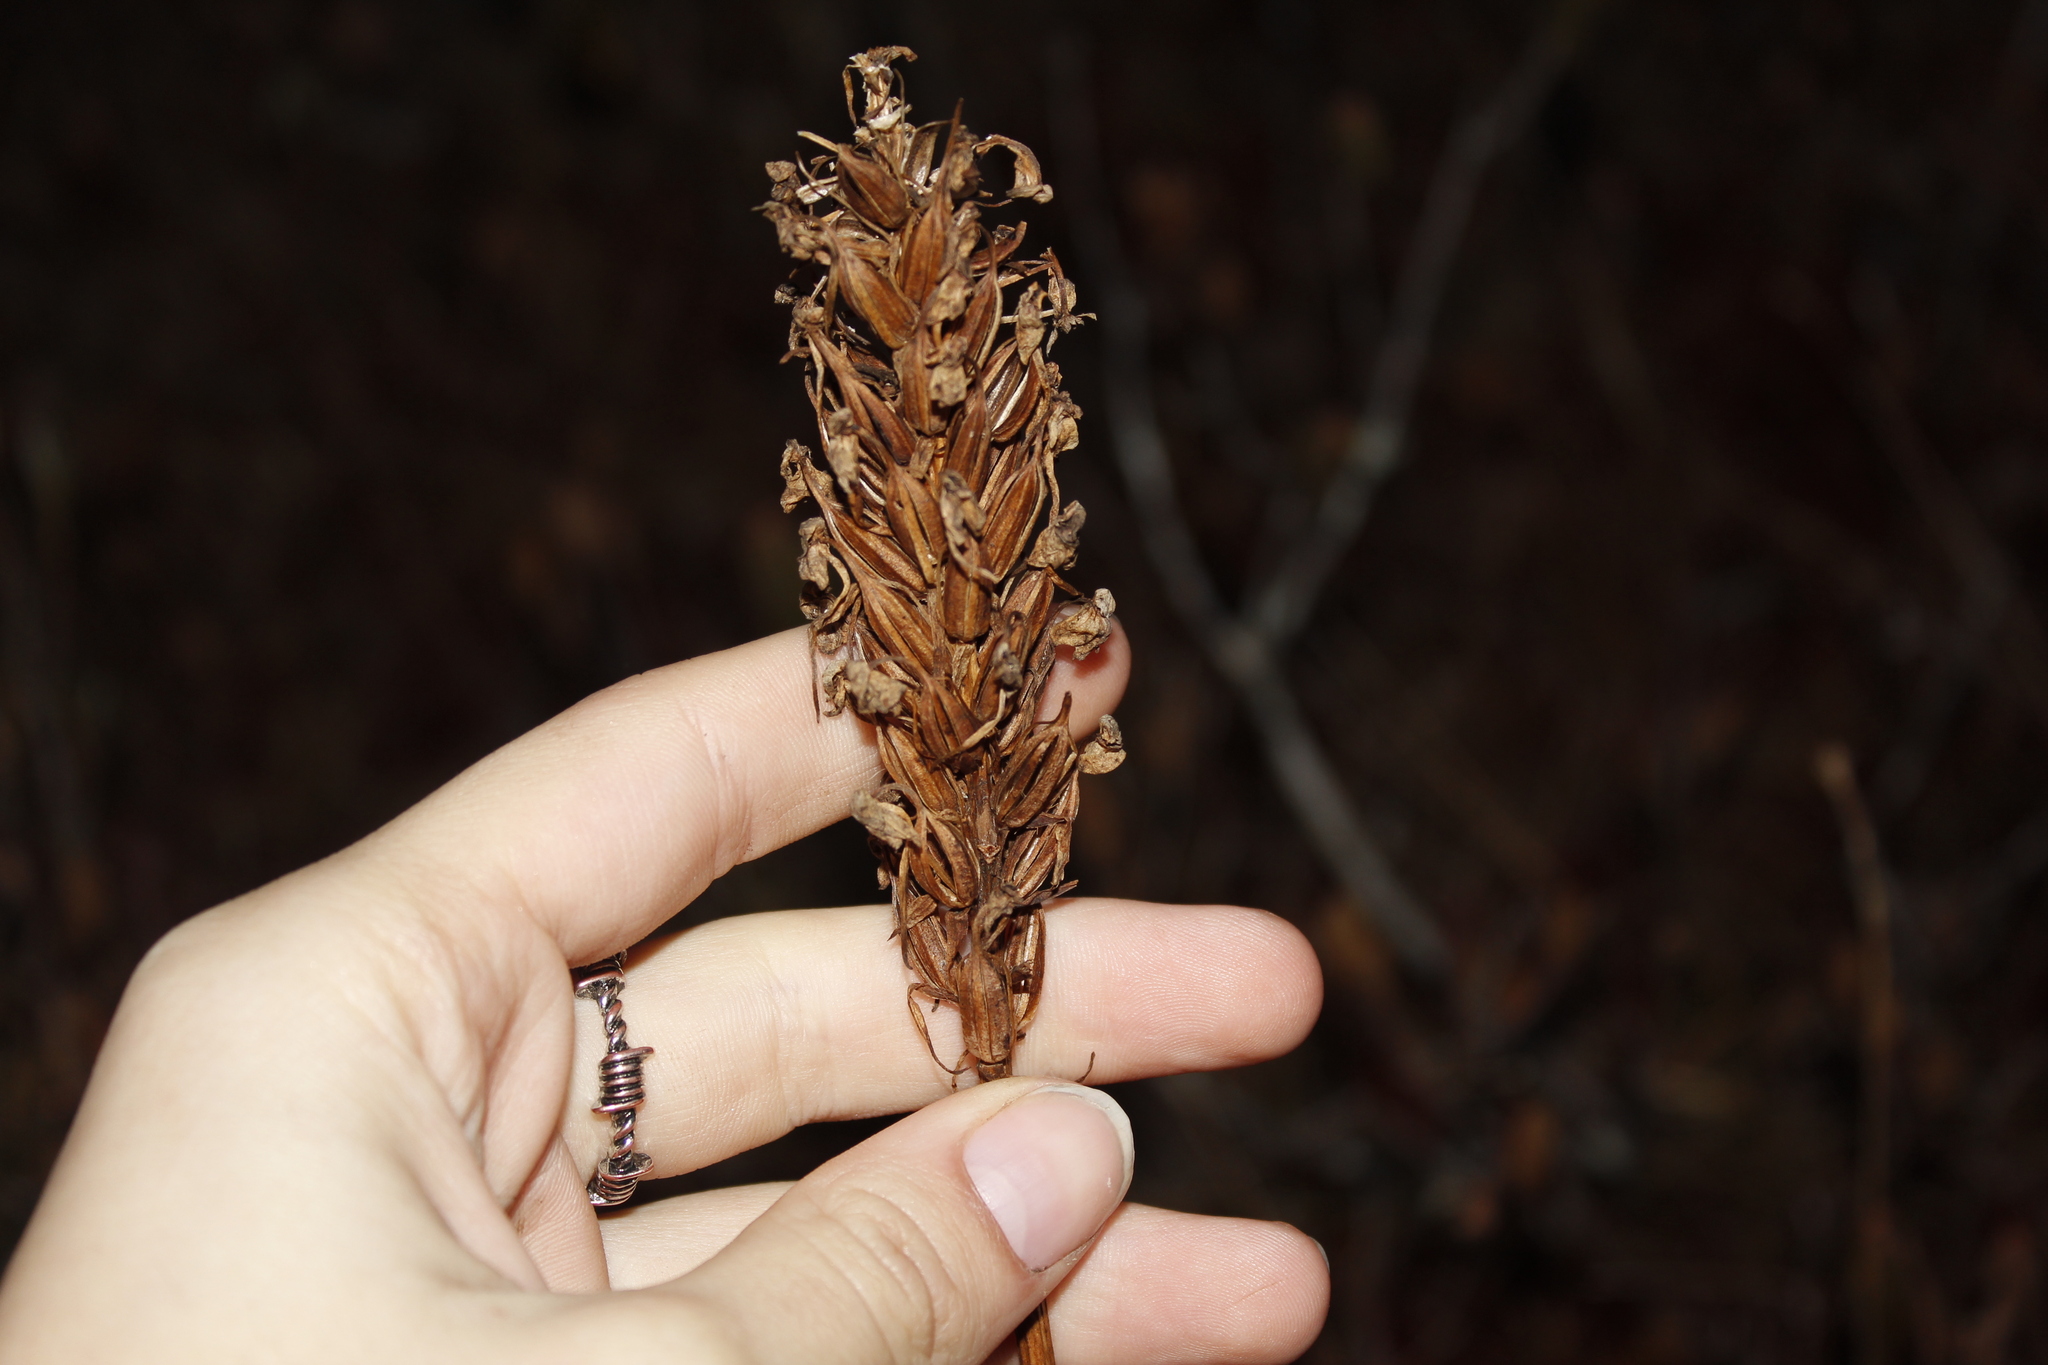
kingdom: Plantae
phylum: Tracheophyta
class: Liliopsida
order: Asparagales
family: Orchidaceae
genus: Platanthera
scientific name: Platanthera blephariglottis
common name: White fringed orchid
